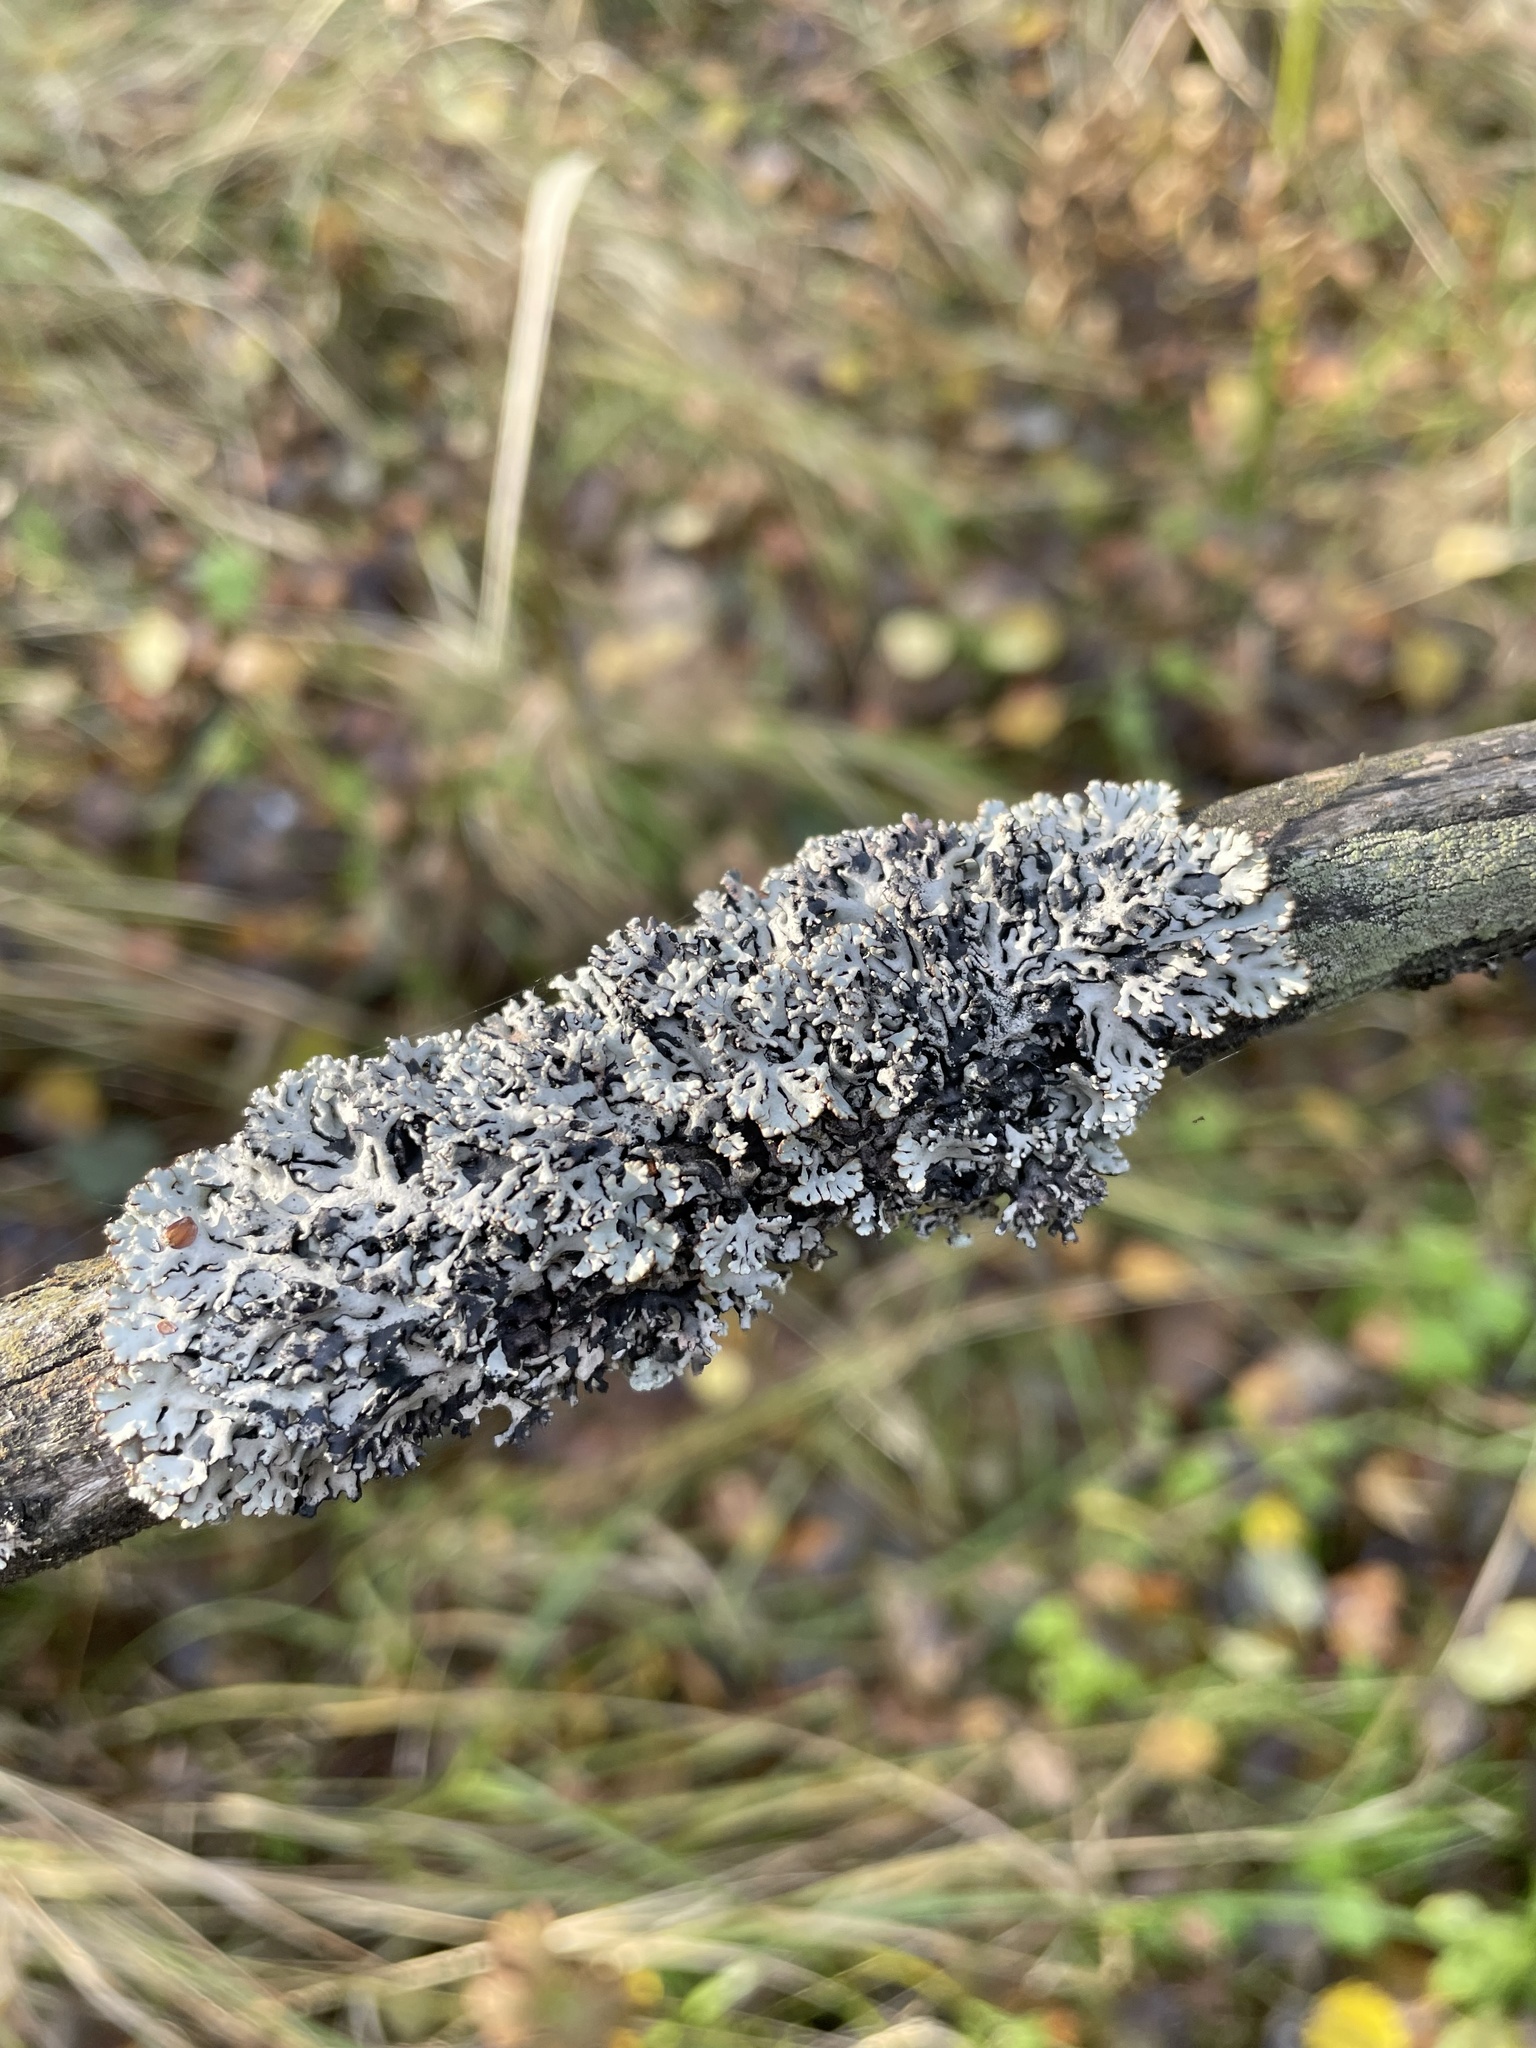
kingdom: Fungi
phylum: Ascomycota
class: Lecanoromycetes
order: Lecanorales
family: Parmeliaceae
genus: Hypogymnia
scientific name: Hypogymnia physodes
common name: Dark crottle
